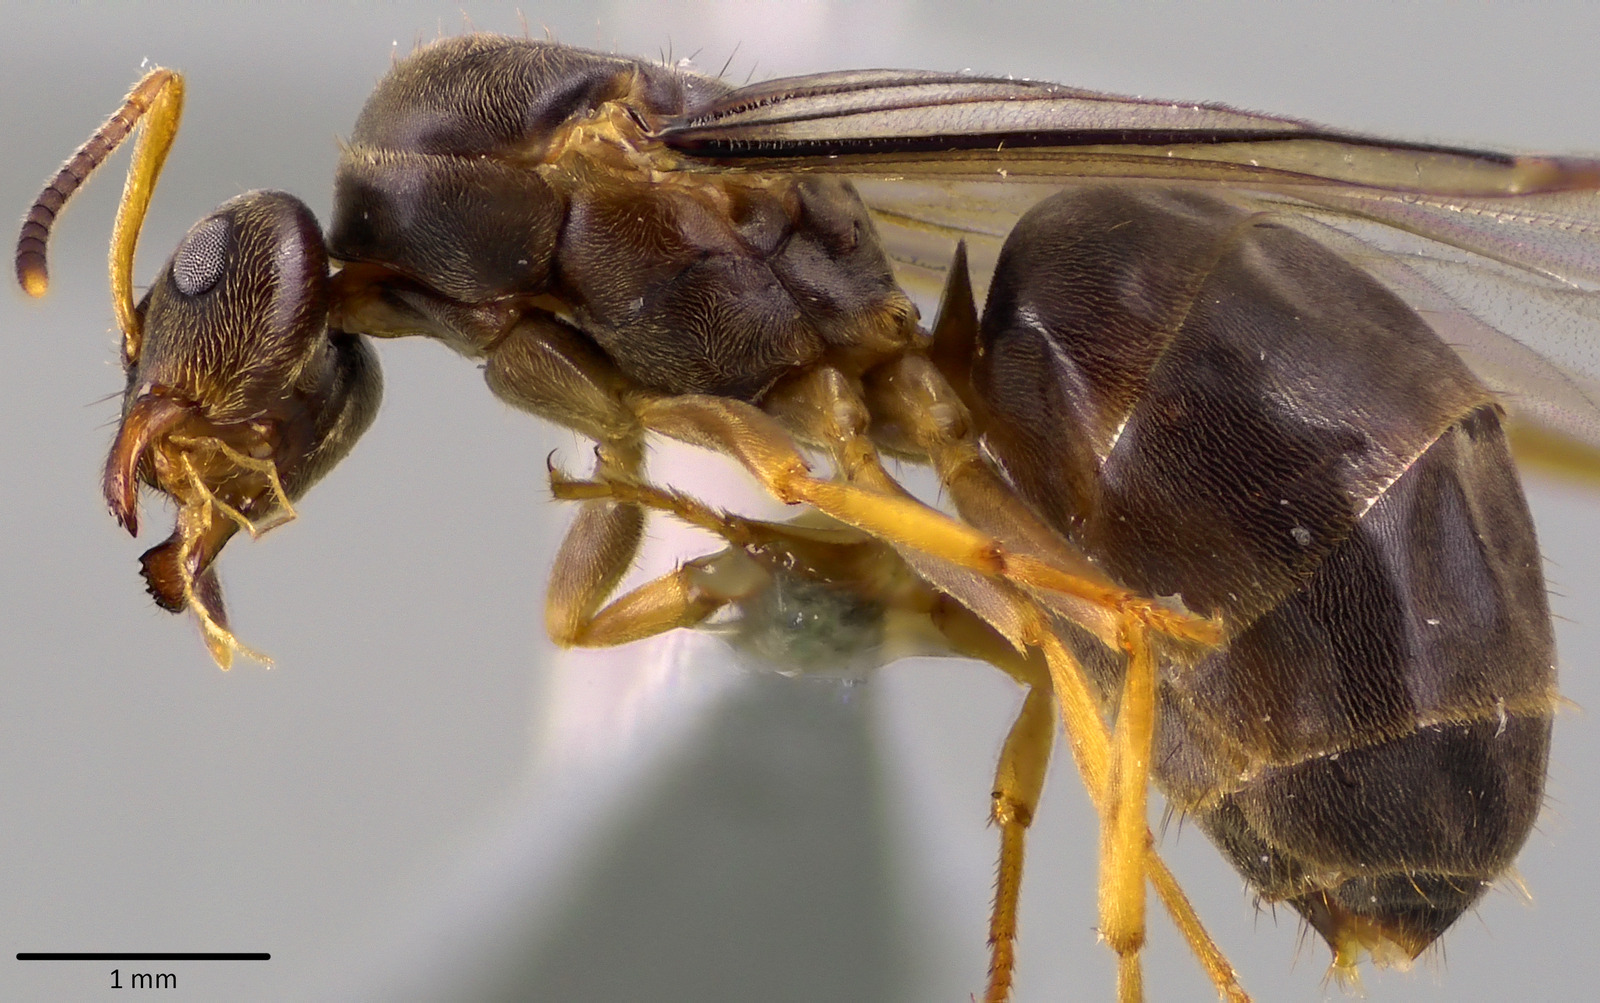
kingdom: Animalia
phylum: Arthropoda
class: Insecta
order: Hymenoptera
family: Formicidae
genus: Lasius
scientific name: Lasius americanus
